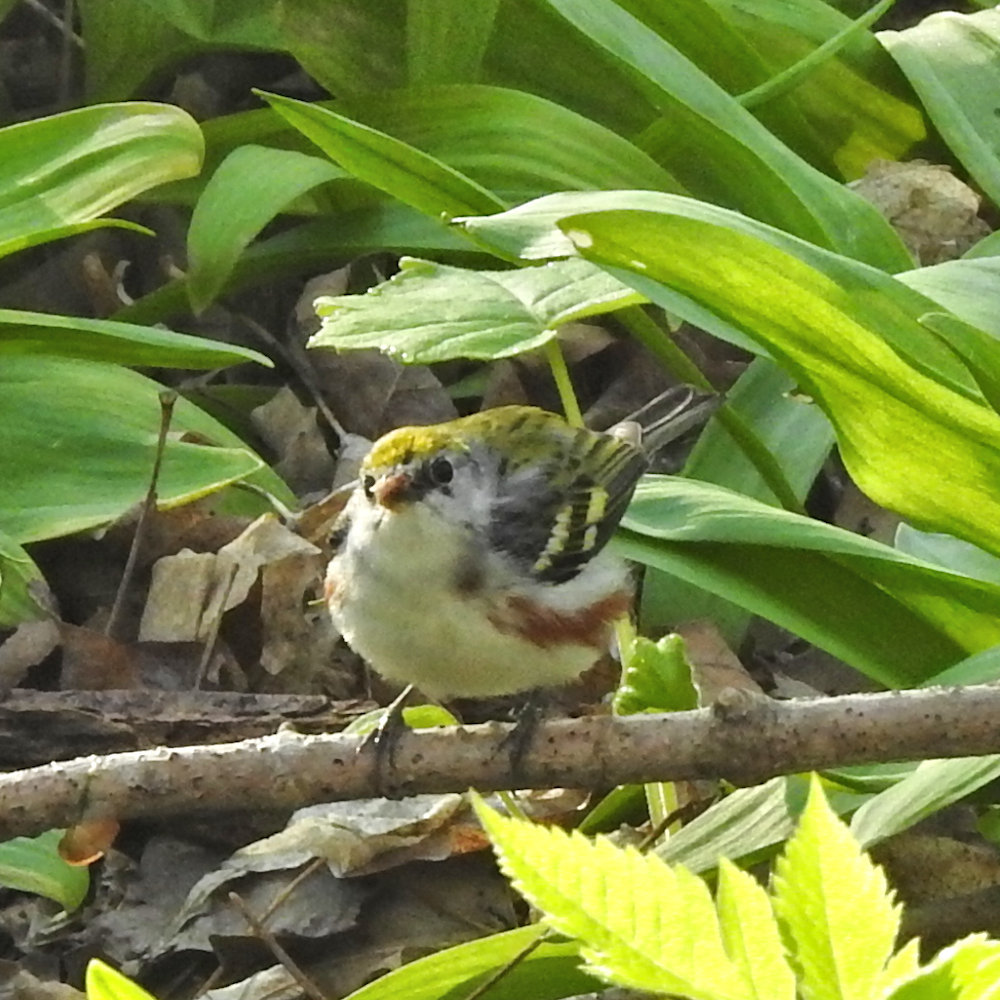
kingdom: Animalia
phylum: Chordata
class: Aves
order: Passeriformes
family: Parulidae
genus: Setophaga
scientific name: Setophaga pensylvanica
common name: Chestnut-sided warbler
